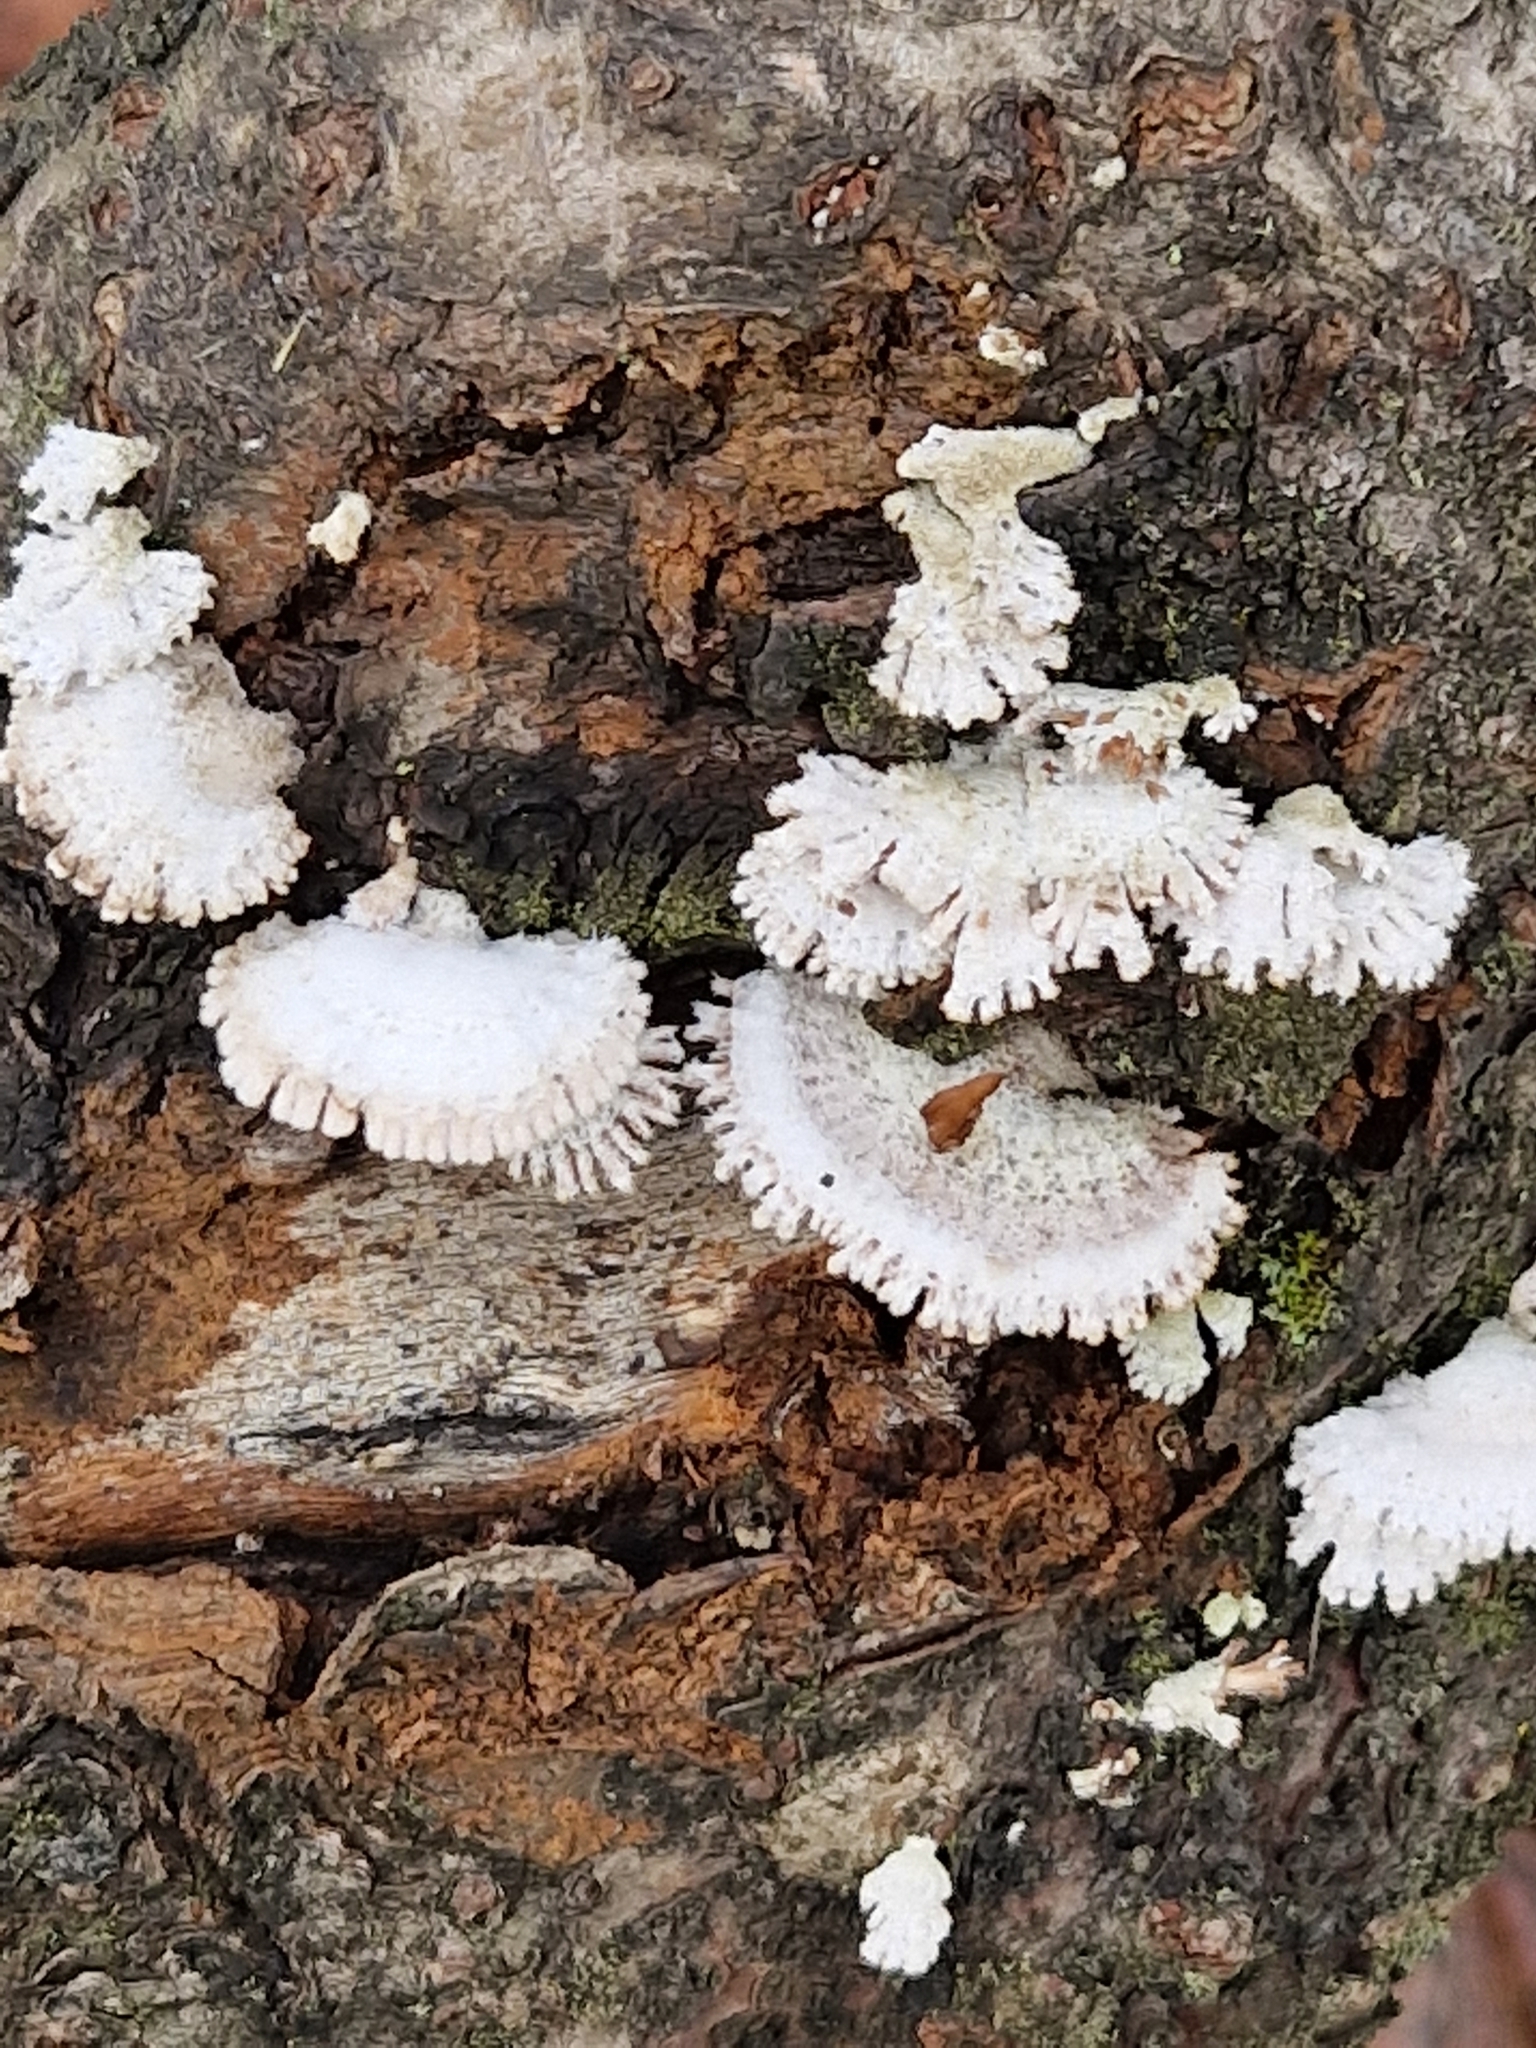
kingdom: Fungi
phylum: Basidiomycota
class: Agaricomycetes
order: Agaricales
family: Schizophyllaceae
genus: Schizophyllum
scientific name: Schizophyllum commune
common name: Common porecrust
